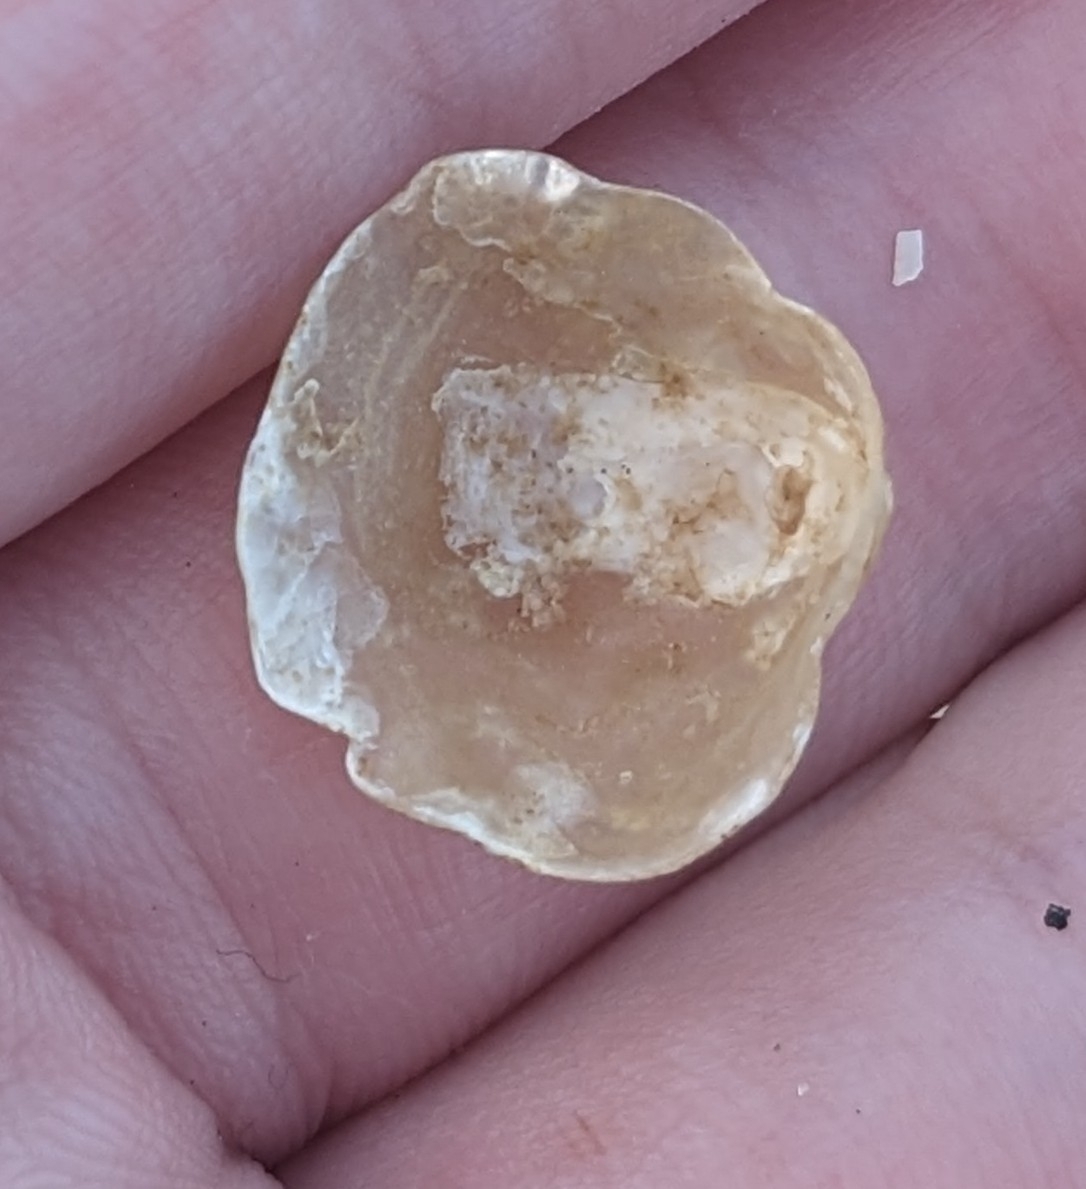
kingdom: Animalia
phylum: Mollusca
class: Bivalvia
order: Pectinida
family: Anomiidae
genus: Anomia
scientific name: Anomia simplex
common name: Common jingle shell
